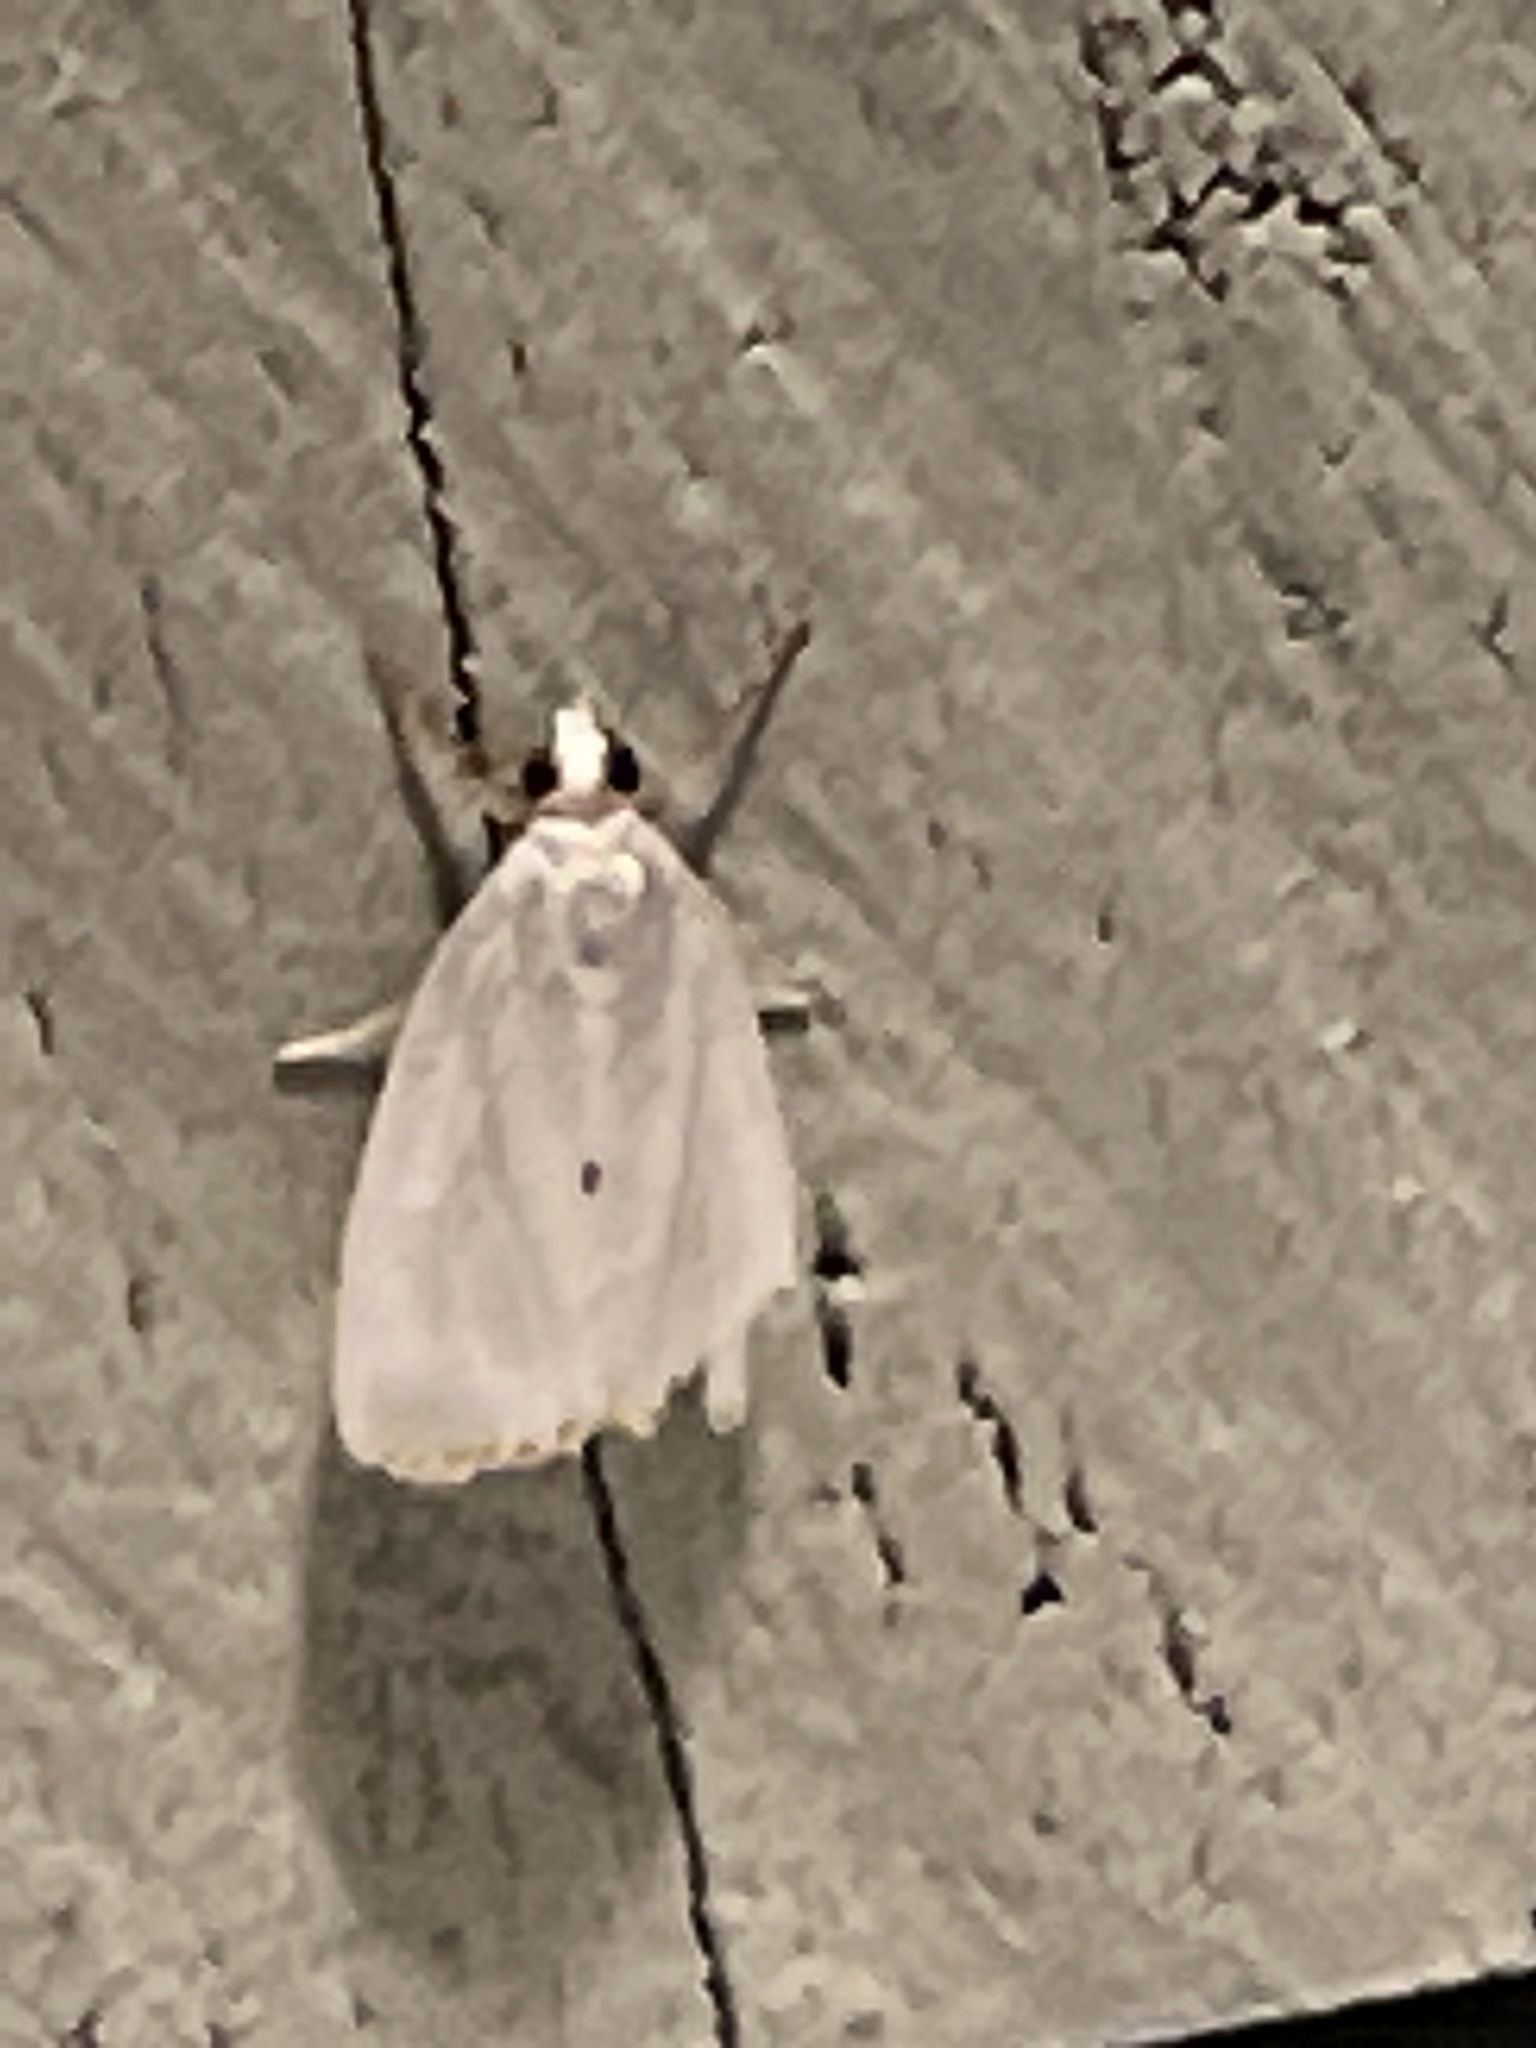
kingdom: Animalia
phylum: Arthropoda
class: Insecta
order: Lepidoptera
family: Crambidae
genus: Argyria
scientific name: Argyria nivalis
